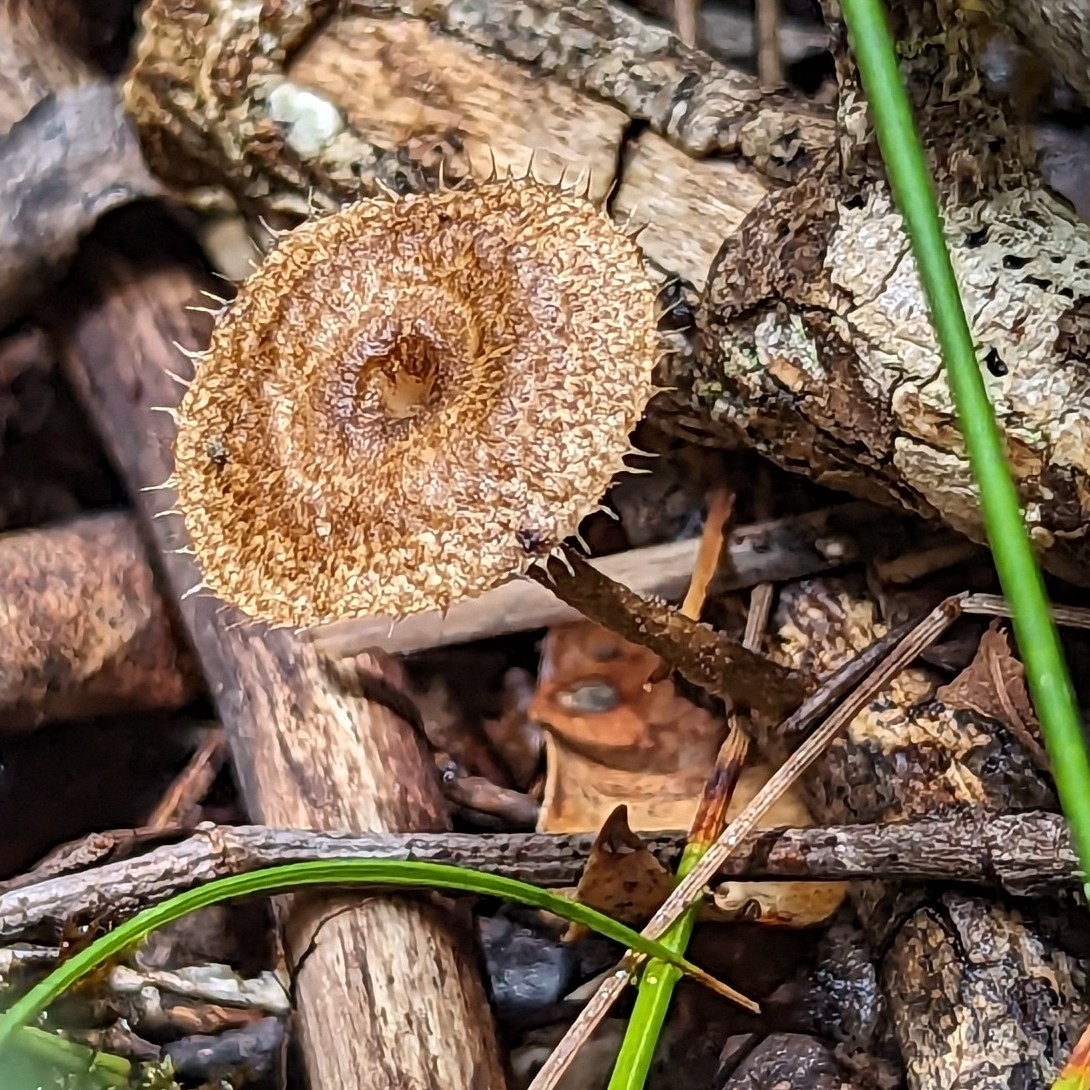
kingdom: Fungi
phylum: Basidiomycota
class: Agaricomycetes
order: Polyporales
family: Polyporaceae
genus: Lentinus
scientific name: Lentinus arcularius
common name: Spring polypore
